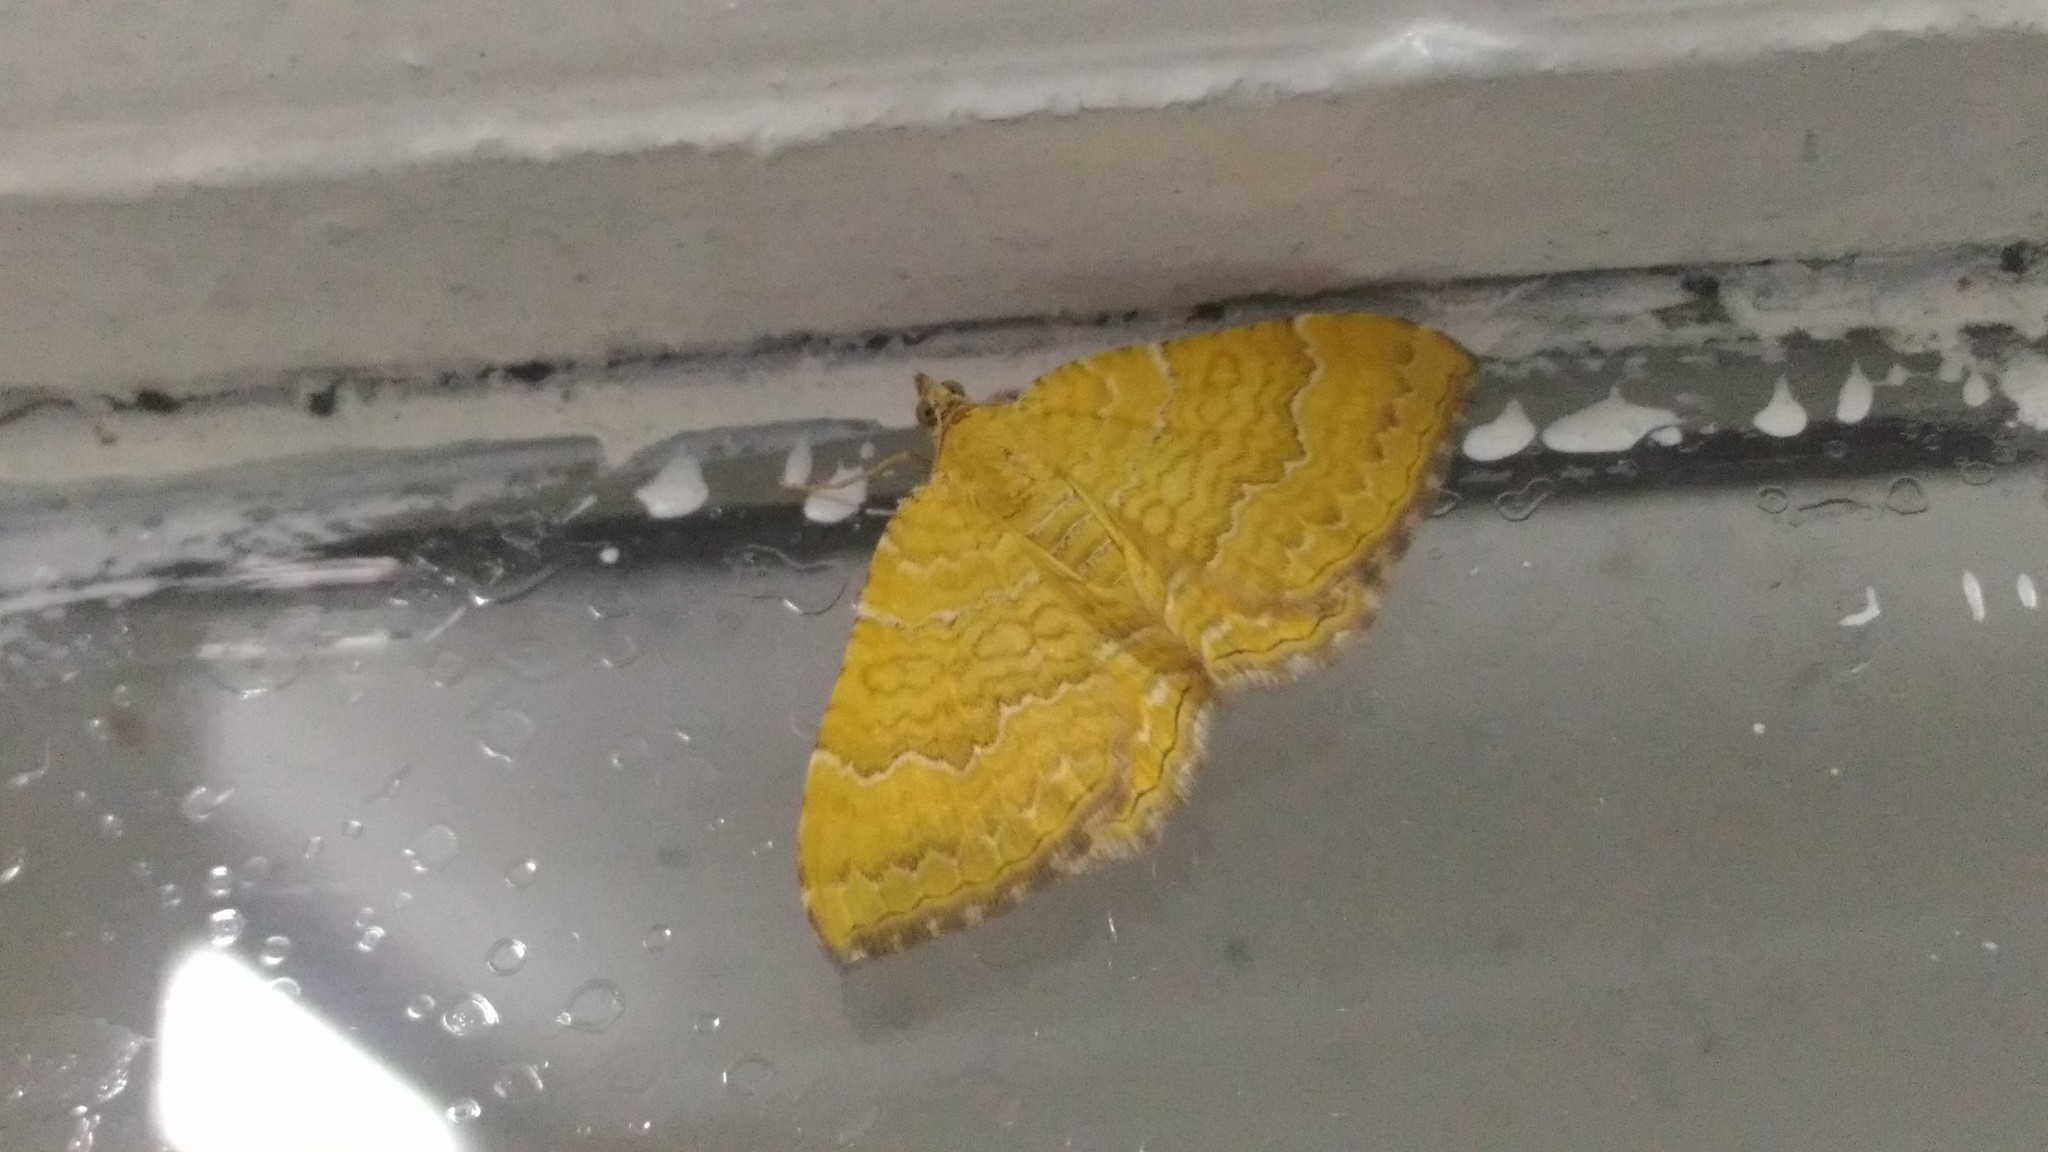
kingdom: Animalia
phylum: Arthropoda
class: Insecta
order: Lepidoptera
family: Geometridae
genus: Camptogramma
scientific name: Camptogramma bilineata
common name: Yellow shell
